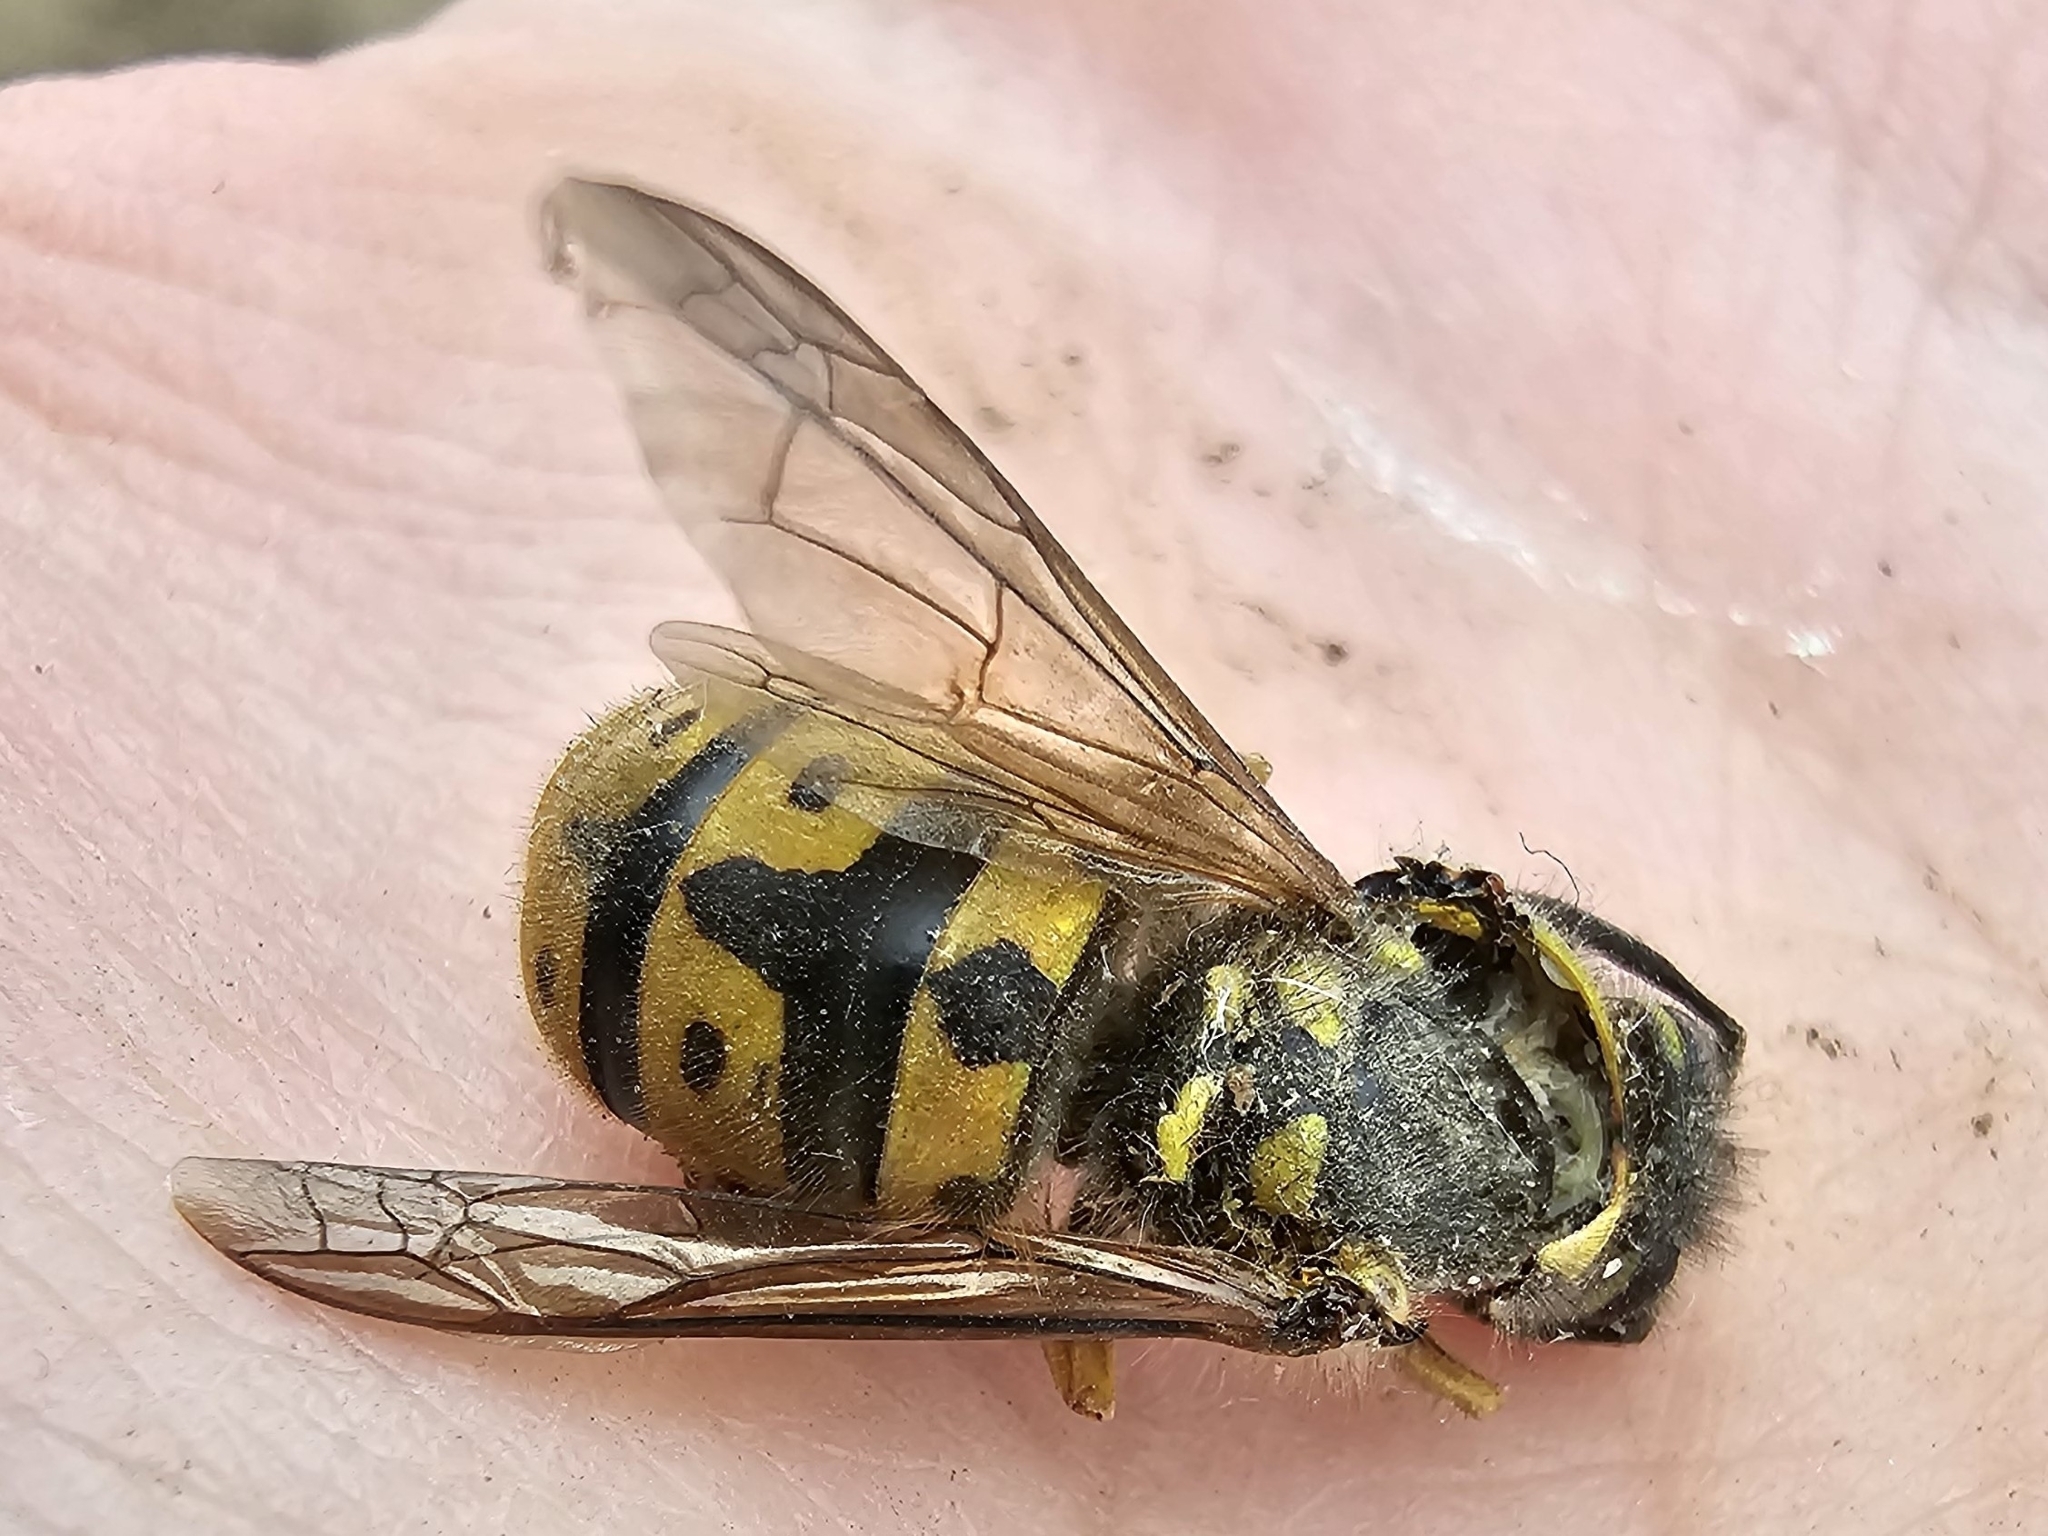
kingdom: Animalia
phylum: Arthropoda
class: Insecta
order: Hymenoptera
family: Vespidae
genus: Vespula
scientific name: Vespula germanica
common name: German wasp
